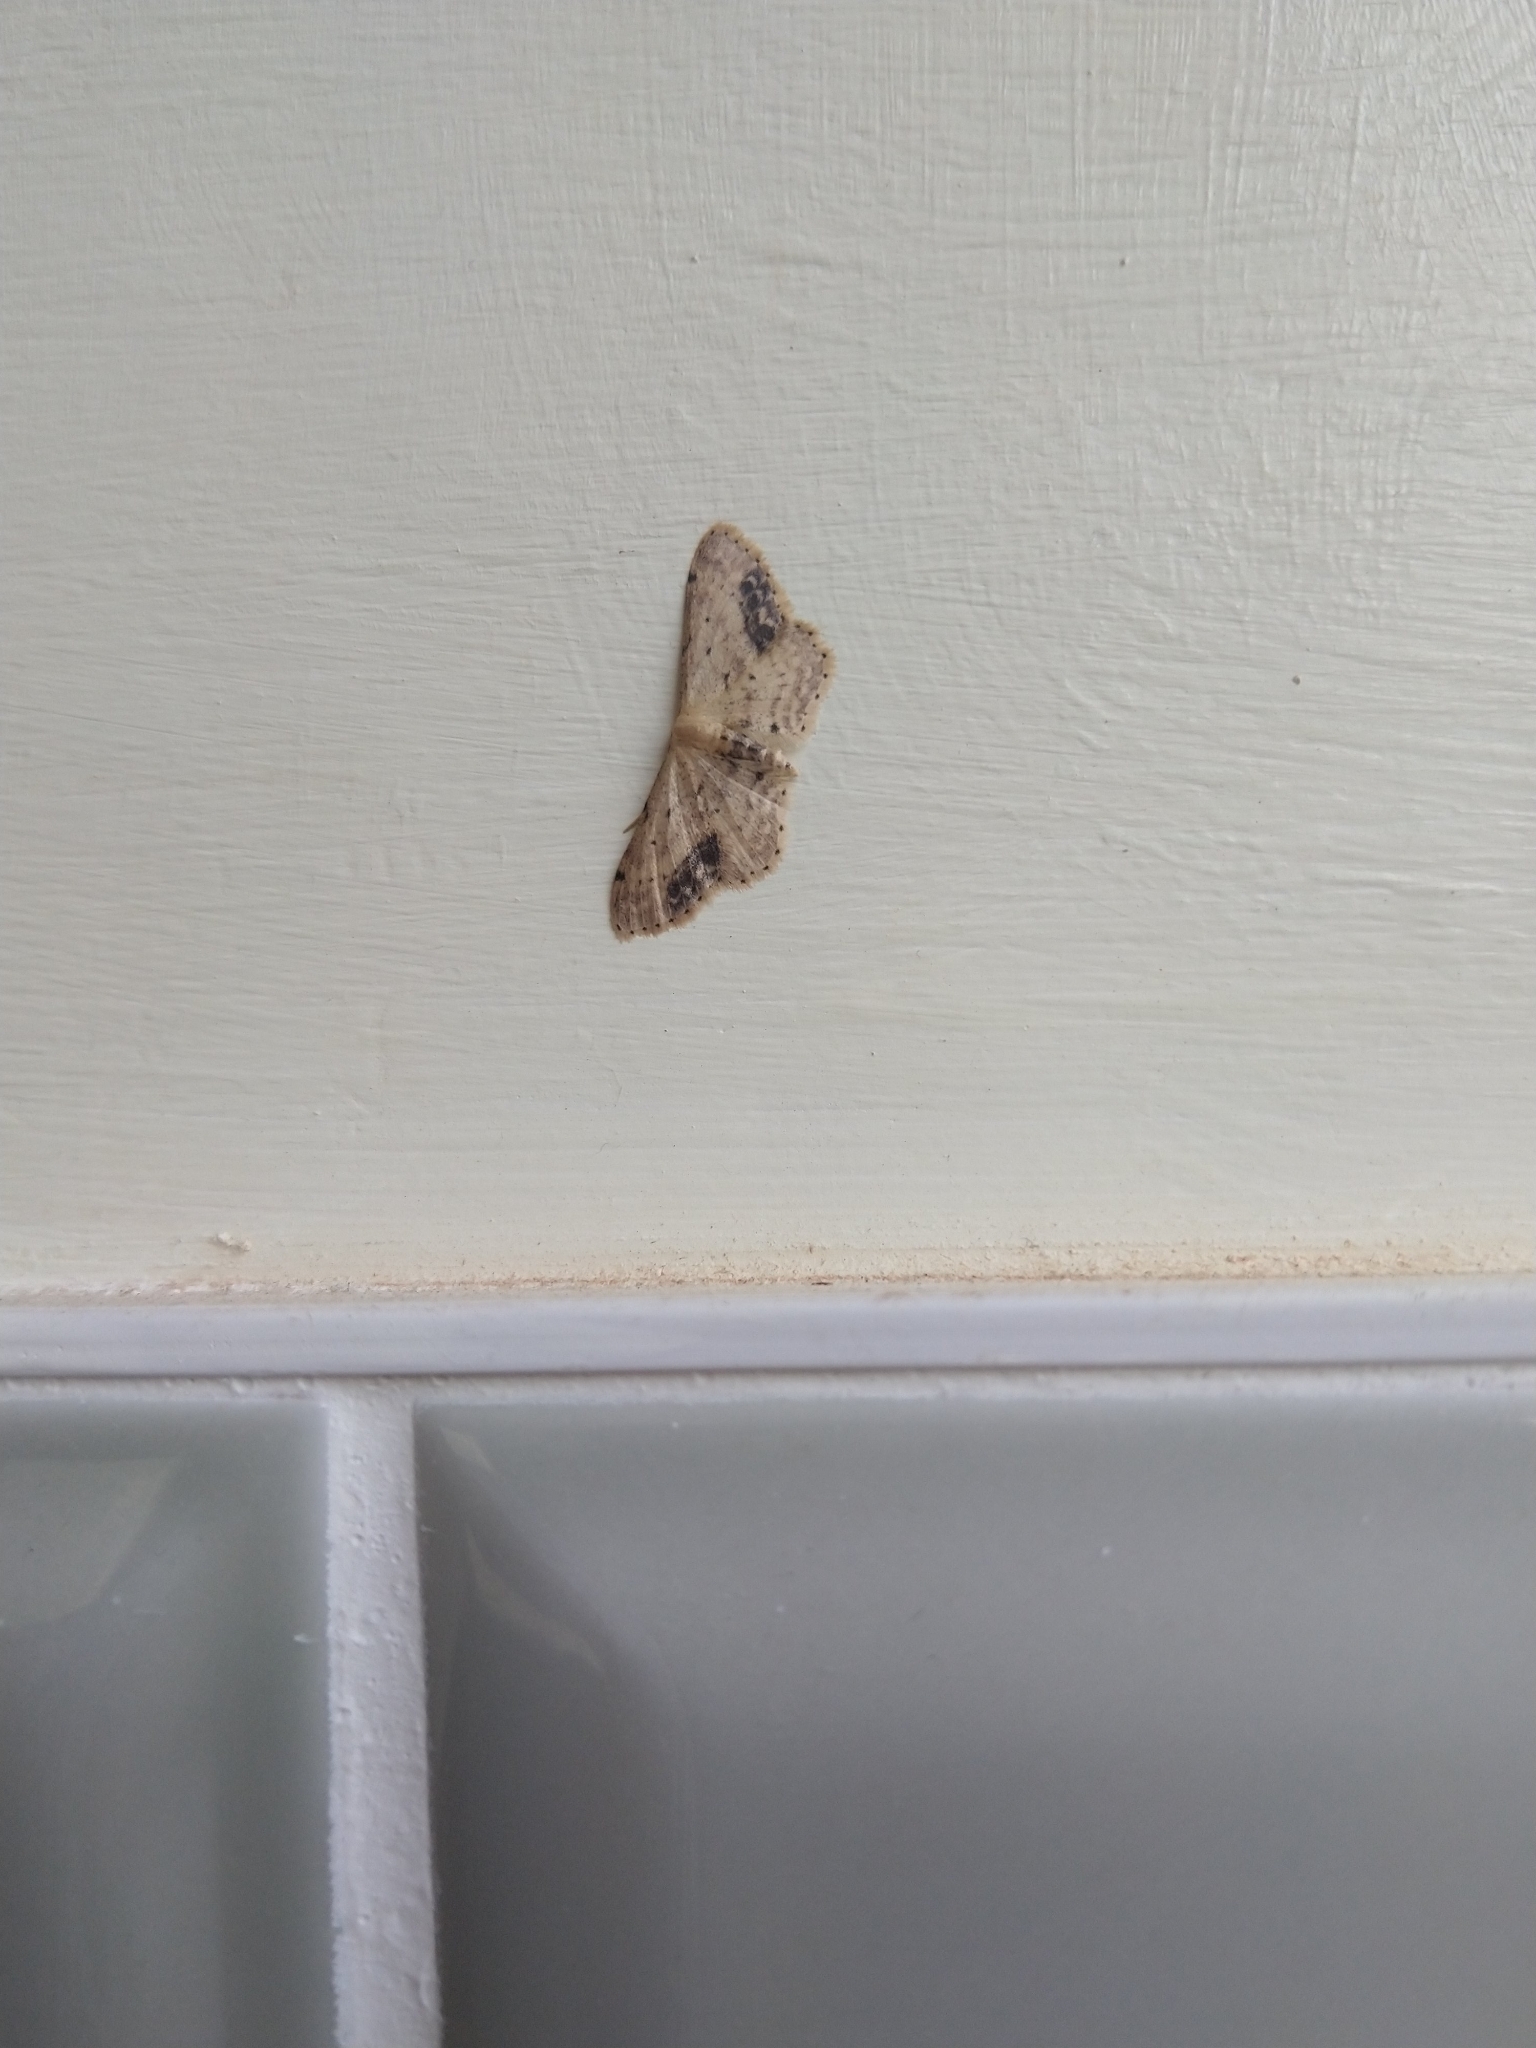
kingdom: Animalia
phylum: Arthropoda
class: Insecta
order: Lepidoptera
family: Geometridae
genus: Idaea
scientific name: Idaea dimidiata
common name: Single-dotted wave
